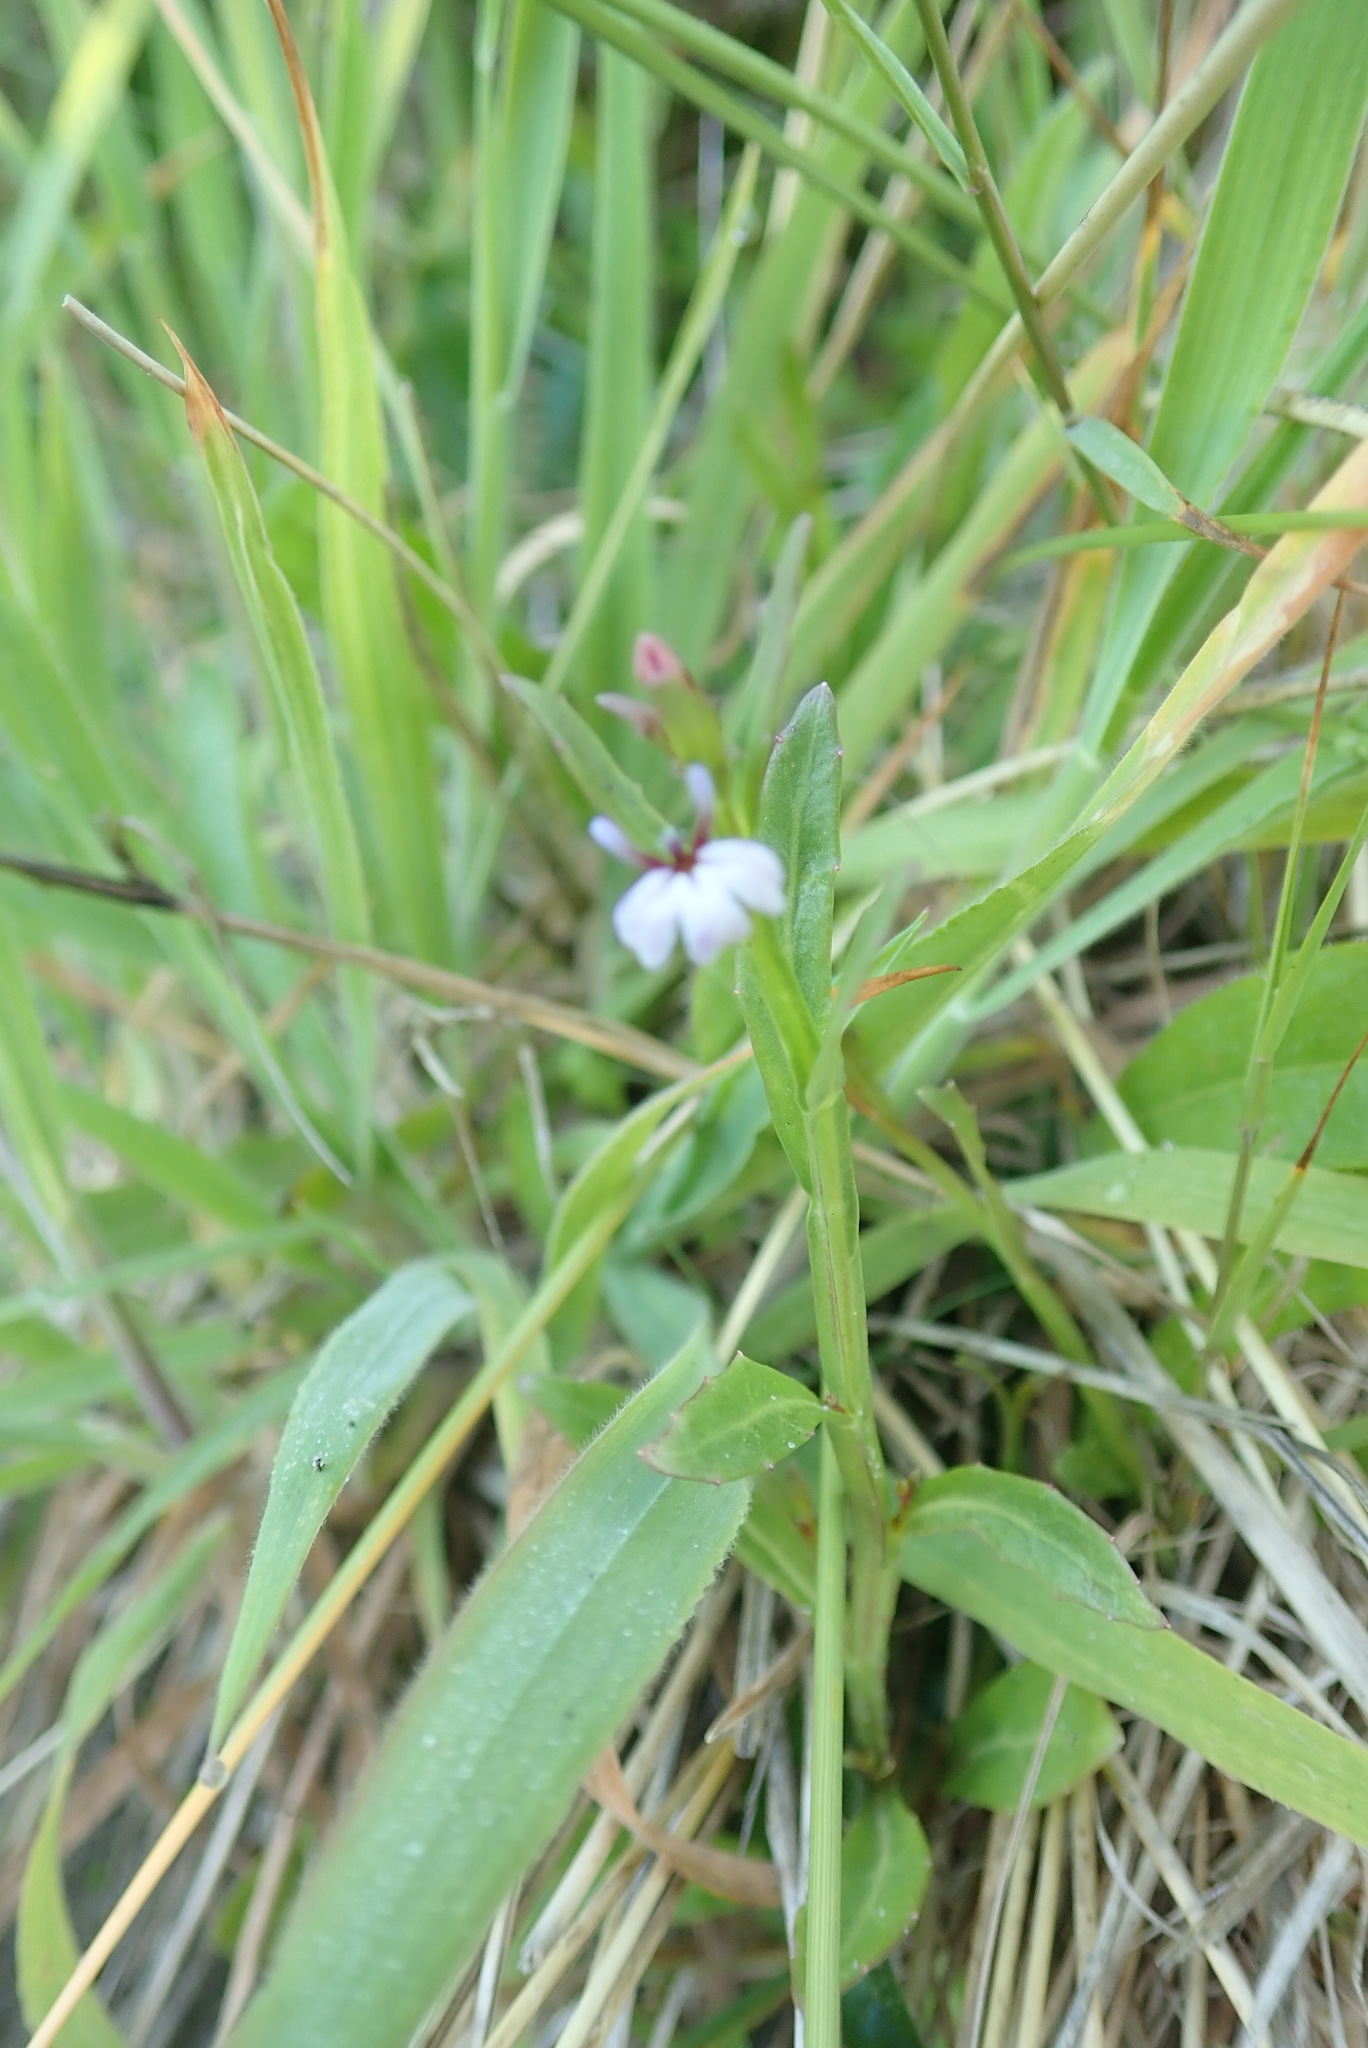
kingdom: Plantae
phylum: Tracheophyta
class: Magnoliopsida
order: Asterales
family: Campanulaceae
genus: Lobelia
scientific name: Lobelia anceps
